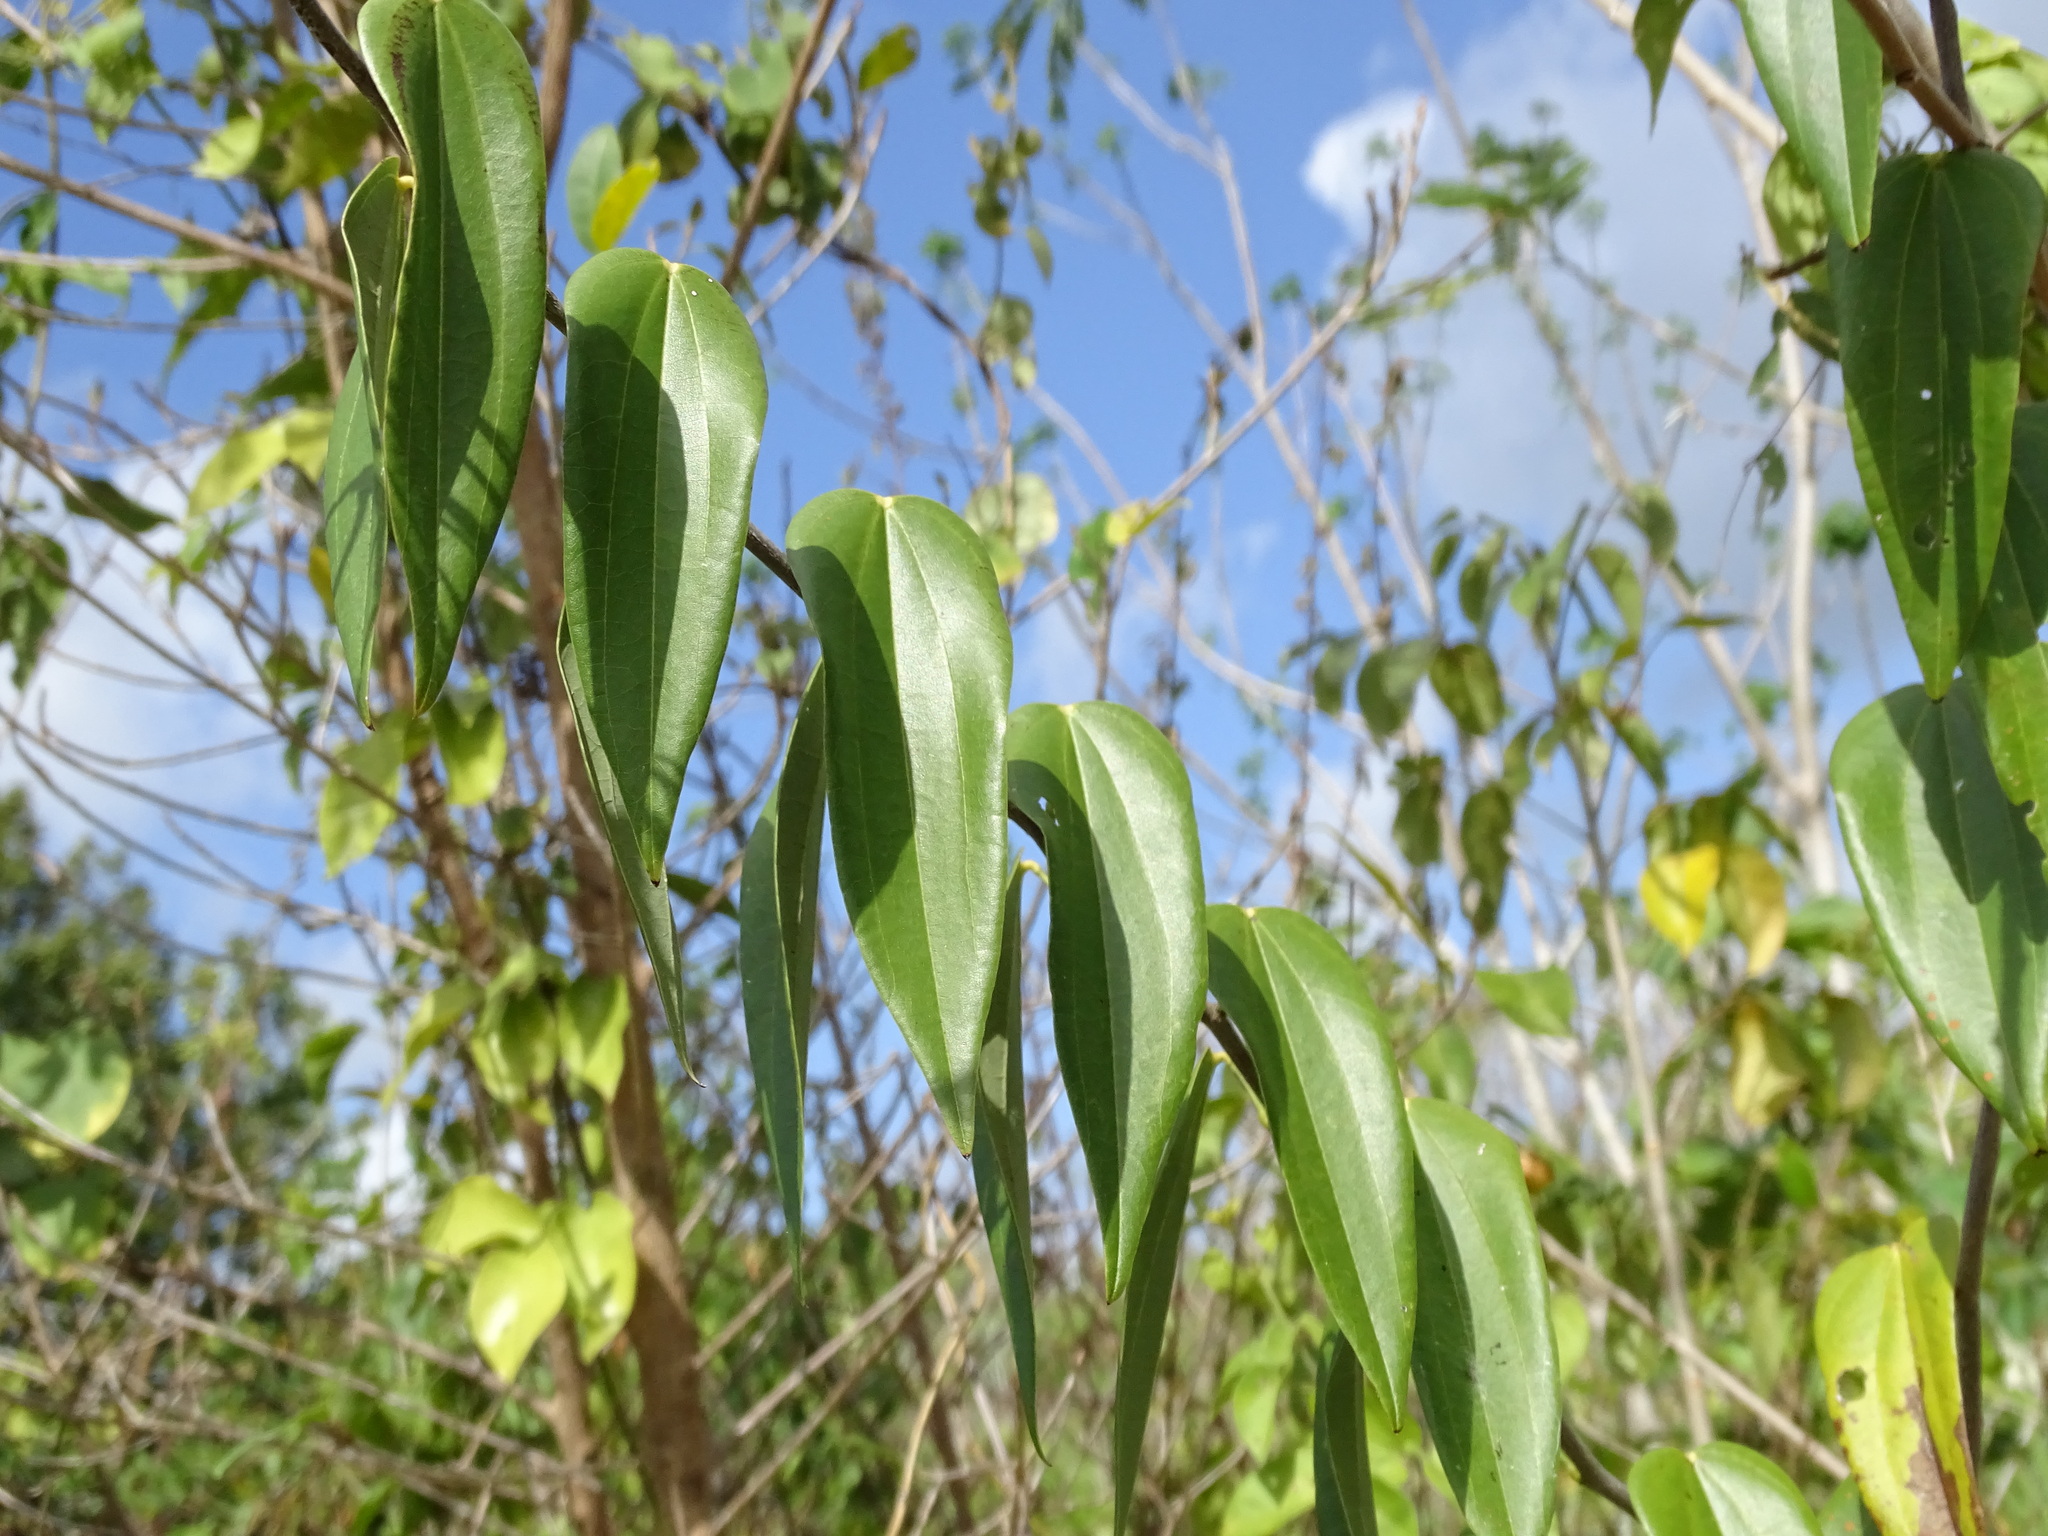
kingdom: Plantae
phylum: Tracheophyta
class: Magnoliopsida
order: Fabales
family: Fabaceae
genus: Bauhinia
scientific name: Bauhinia jenningsii
